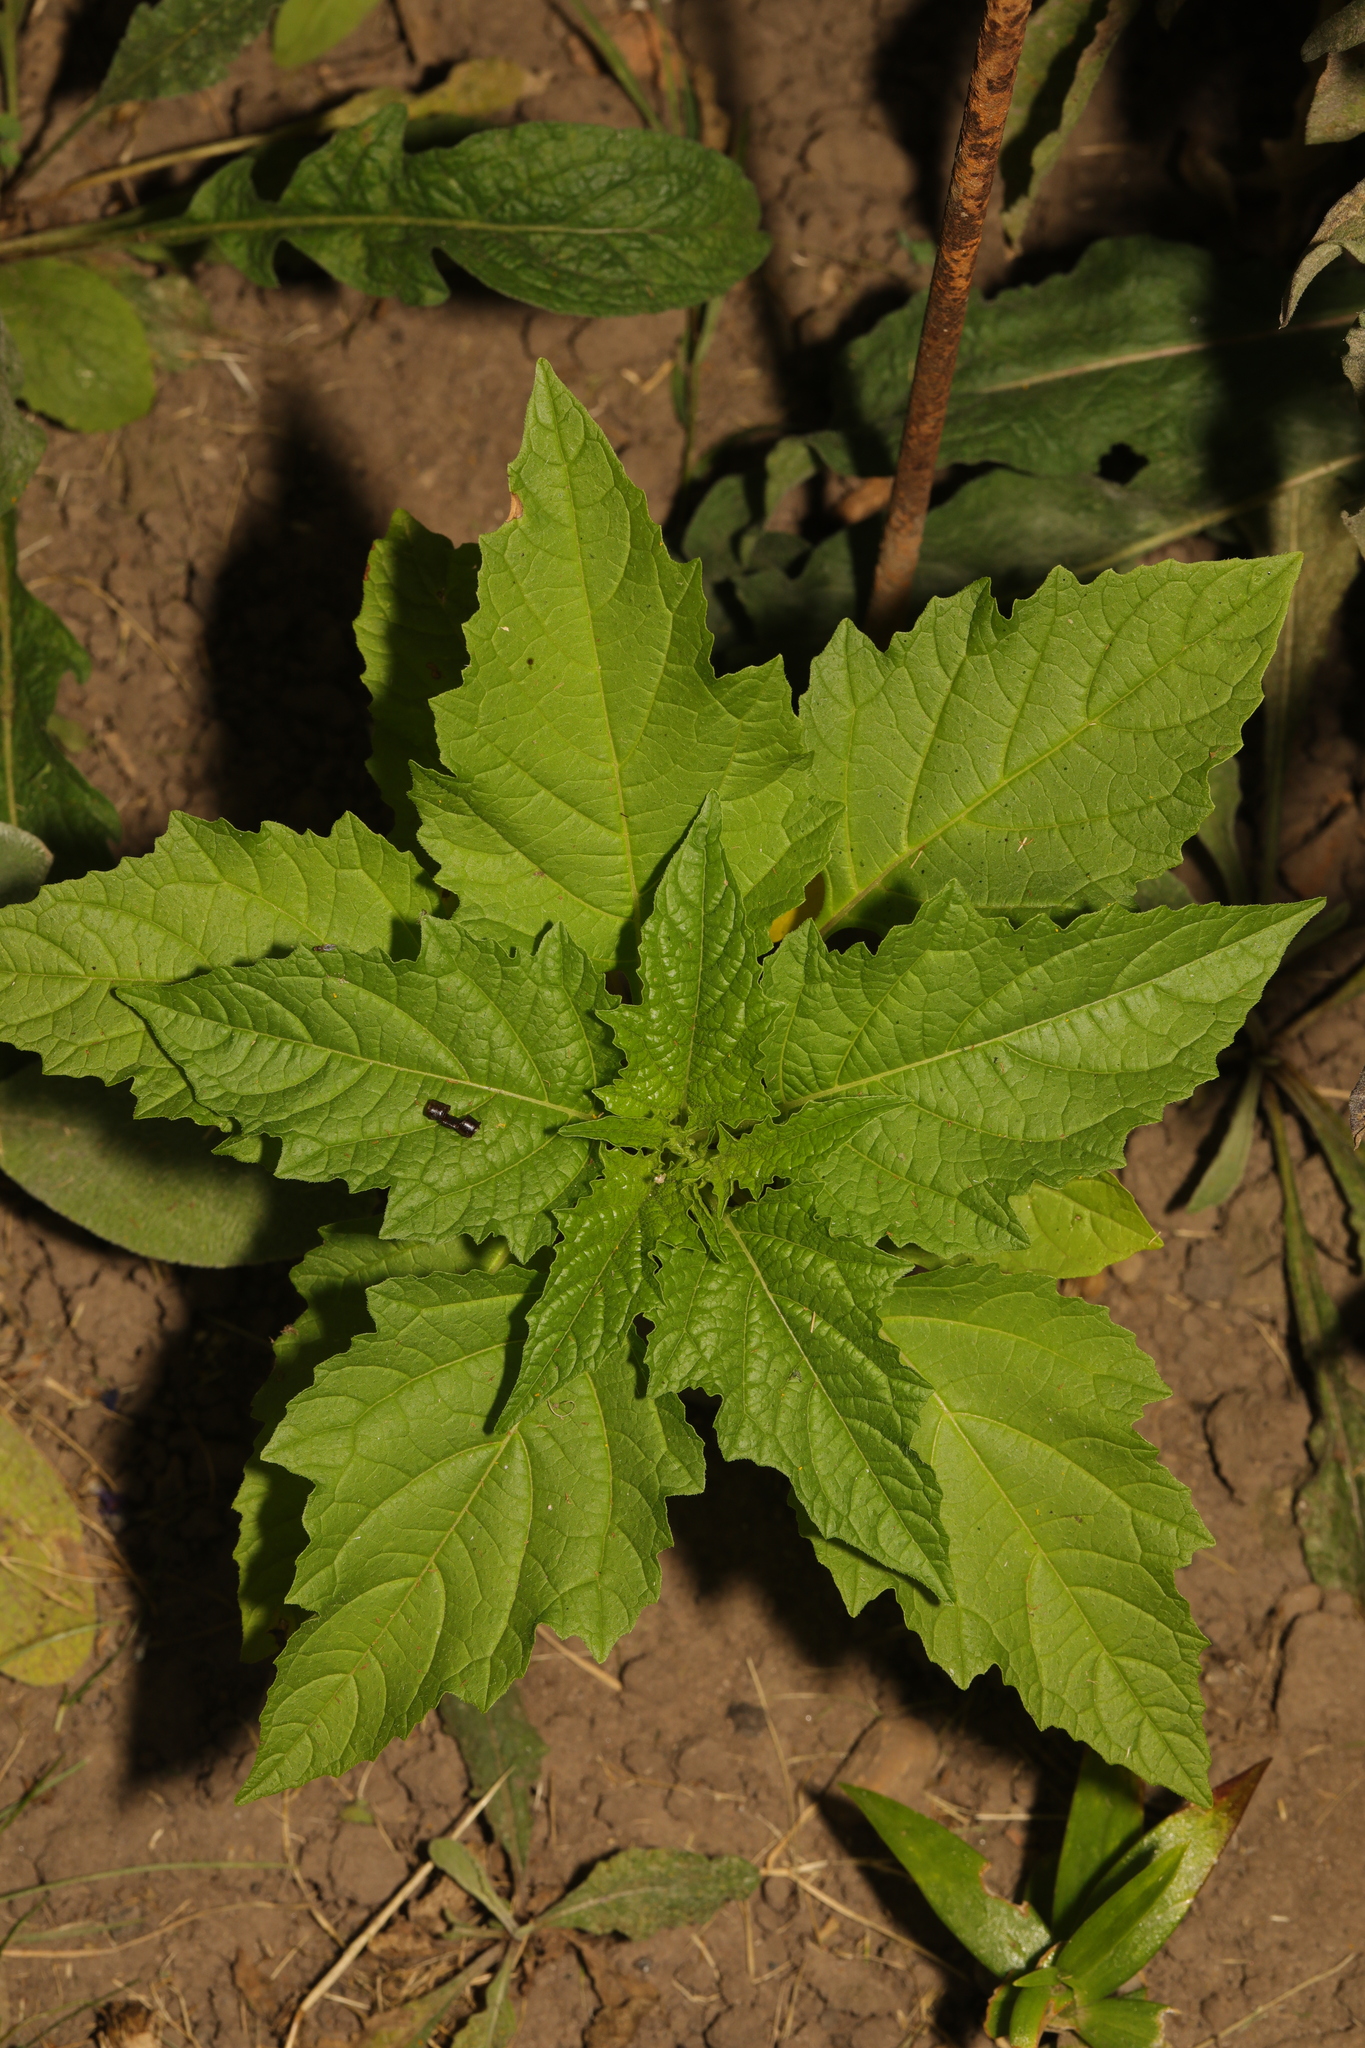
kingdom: Plantae
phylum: Tracheophyta
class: Magnoliopsida
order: Solanales
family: Solanaceae
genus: Nicandra
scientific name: Nicandra physalodes
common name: Apple-of-peru
